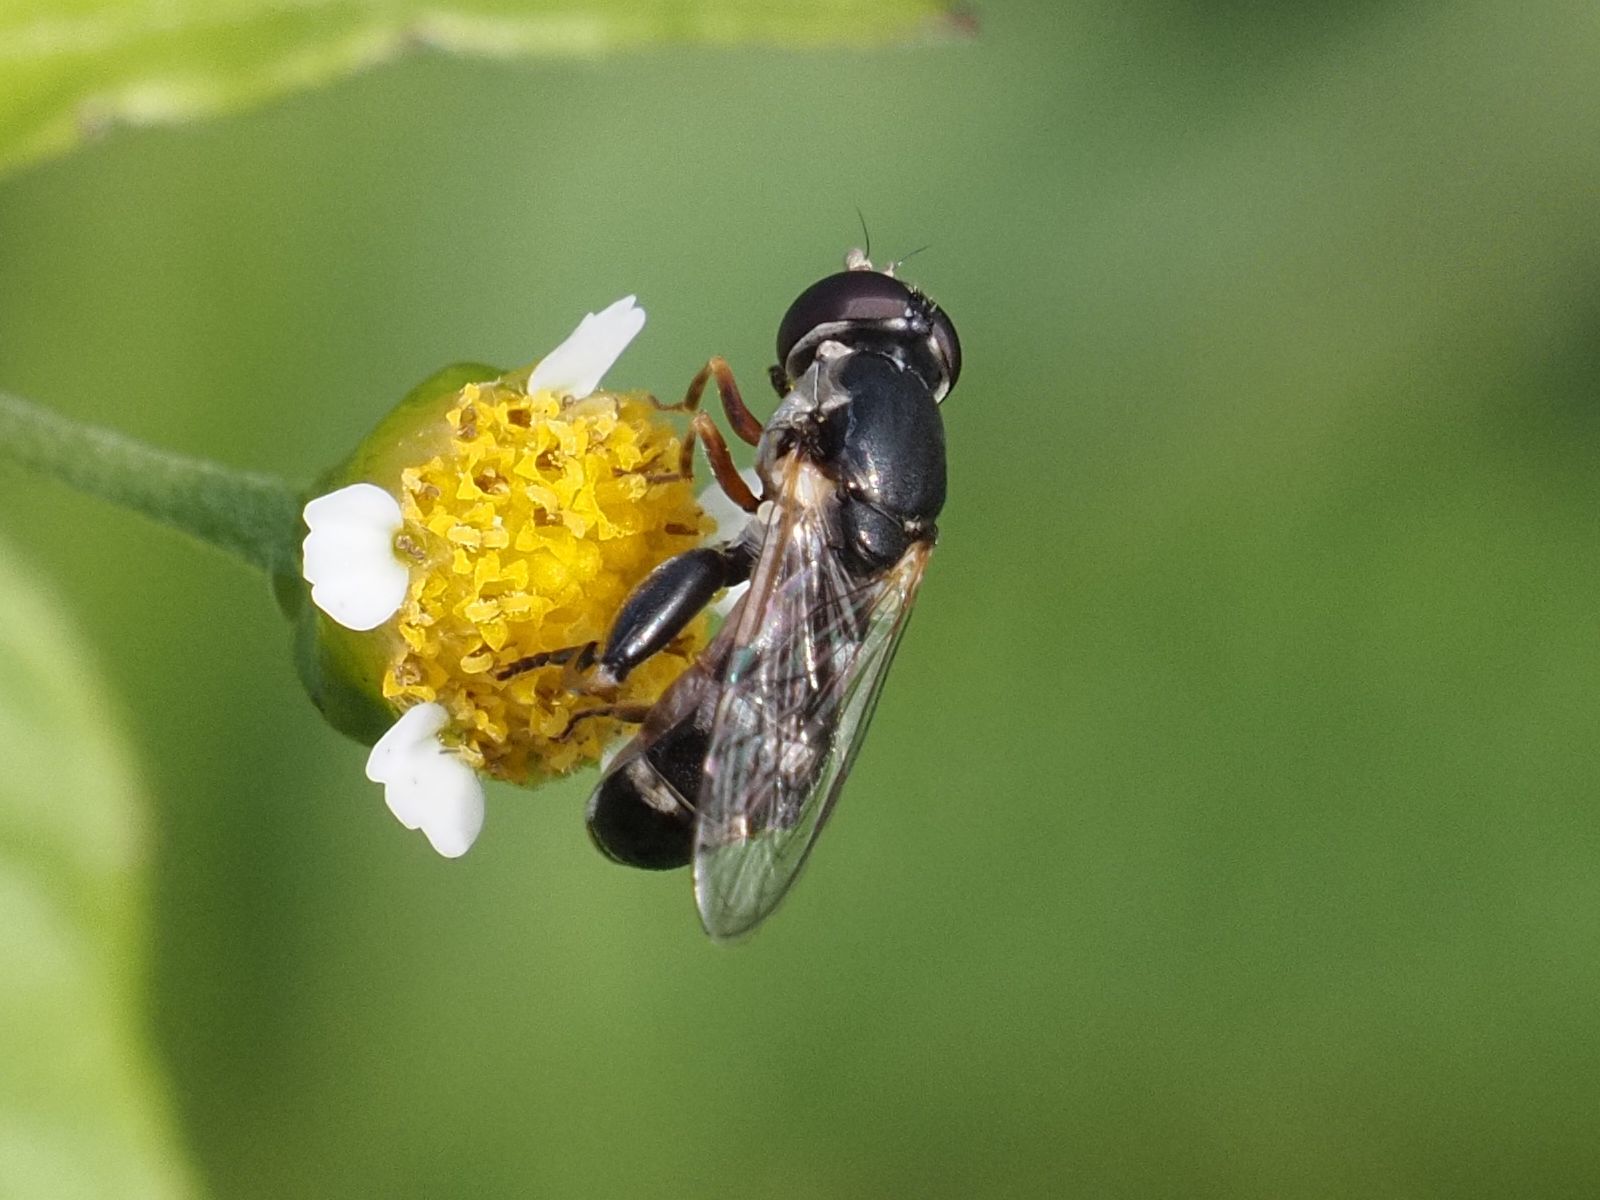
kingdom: Animalia
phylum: Arthropoda
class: Insecta
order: Diptera
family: Syrphidae
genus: Syritta
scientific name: Syritta pipiens
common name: Hover fly
